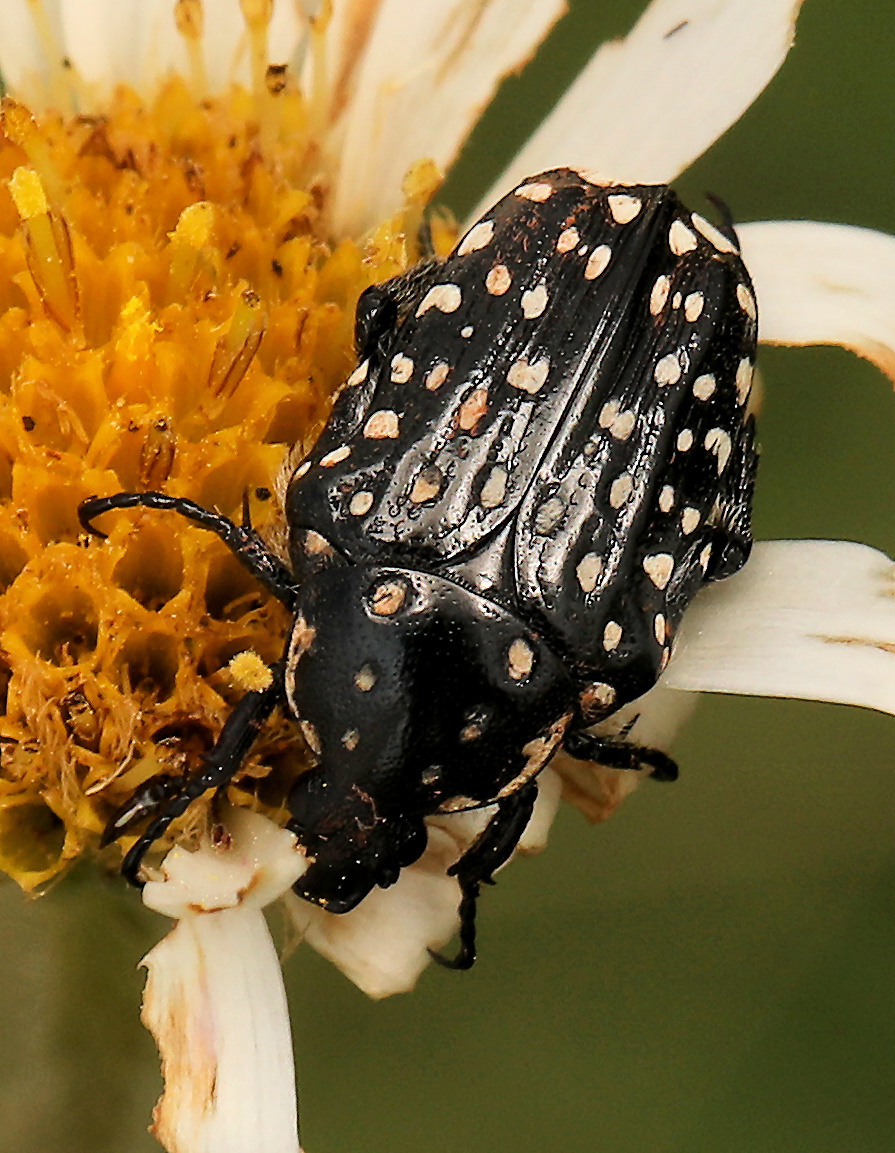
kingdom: Animalia
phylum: Arthropoda
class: Insecta
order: Coleoptera
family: Scarabaeidae
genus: Cyrtothyrea
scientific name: Cyrtothyrea testaceoguttata
